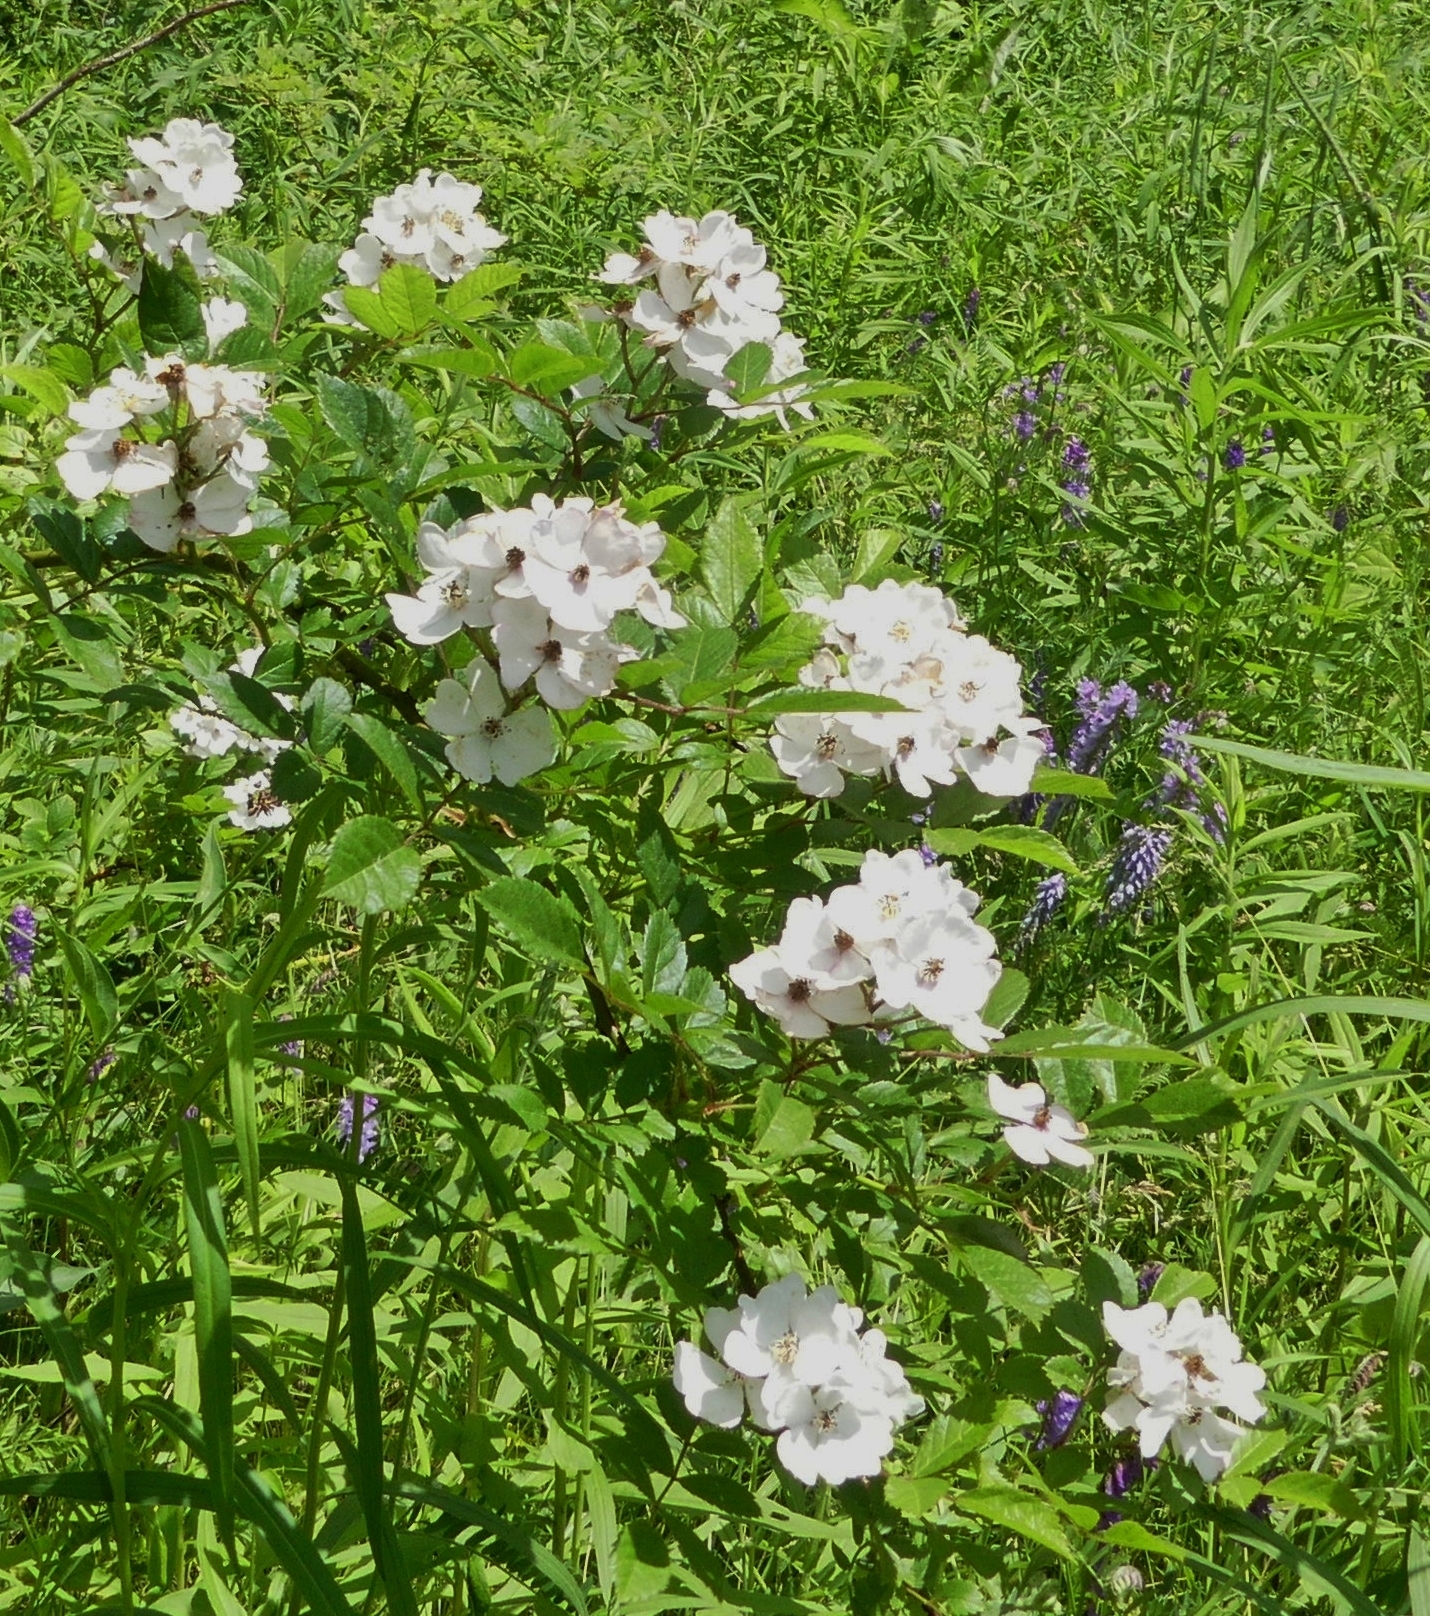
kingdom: Plantae
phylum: Tracheophyta
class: Magnoliopsida
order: Rosales
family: Rosaceae
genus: Rosa
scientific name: Rosa multiflora
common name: Multiflora rose
